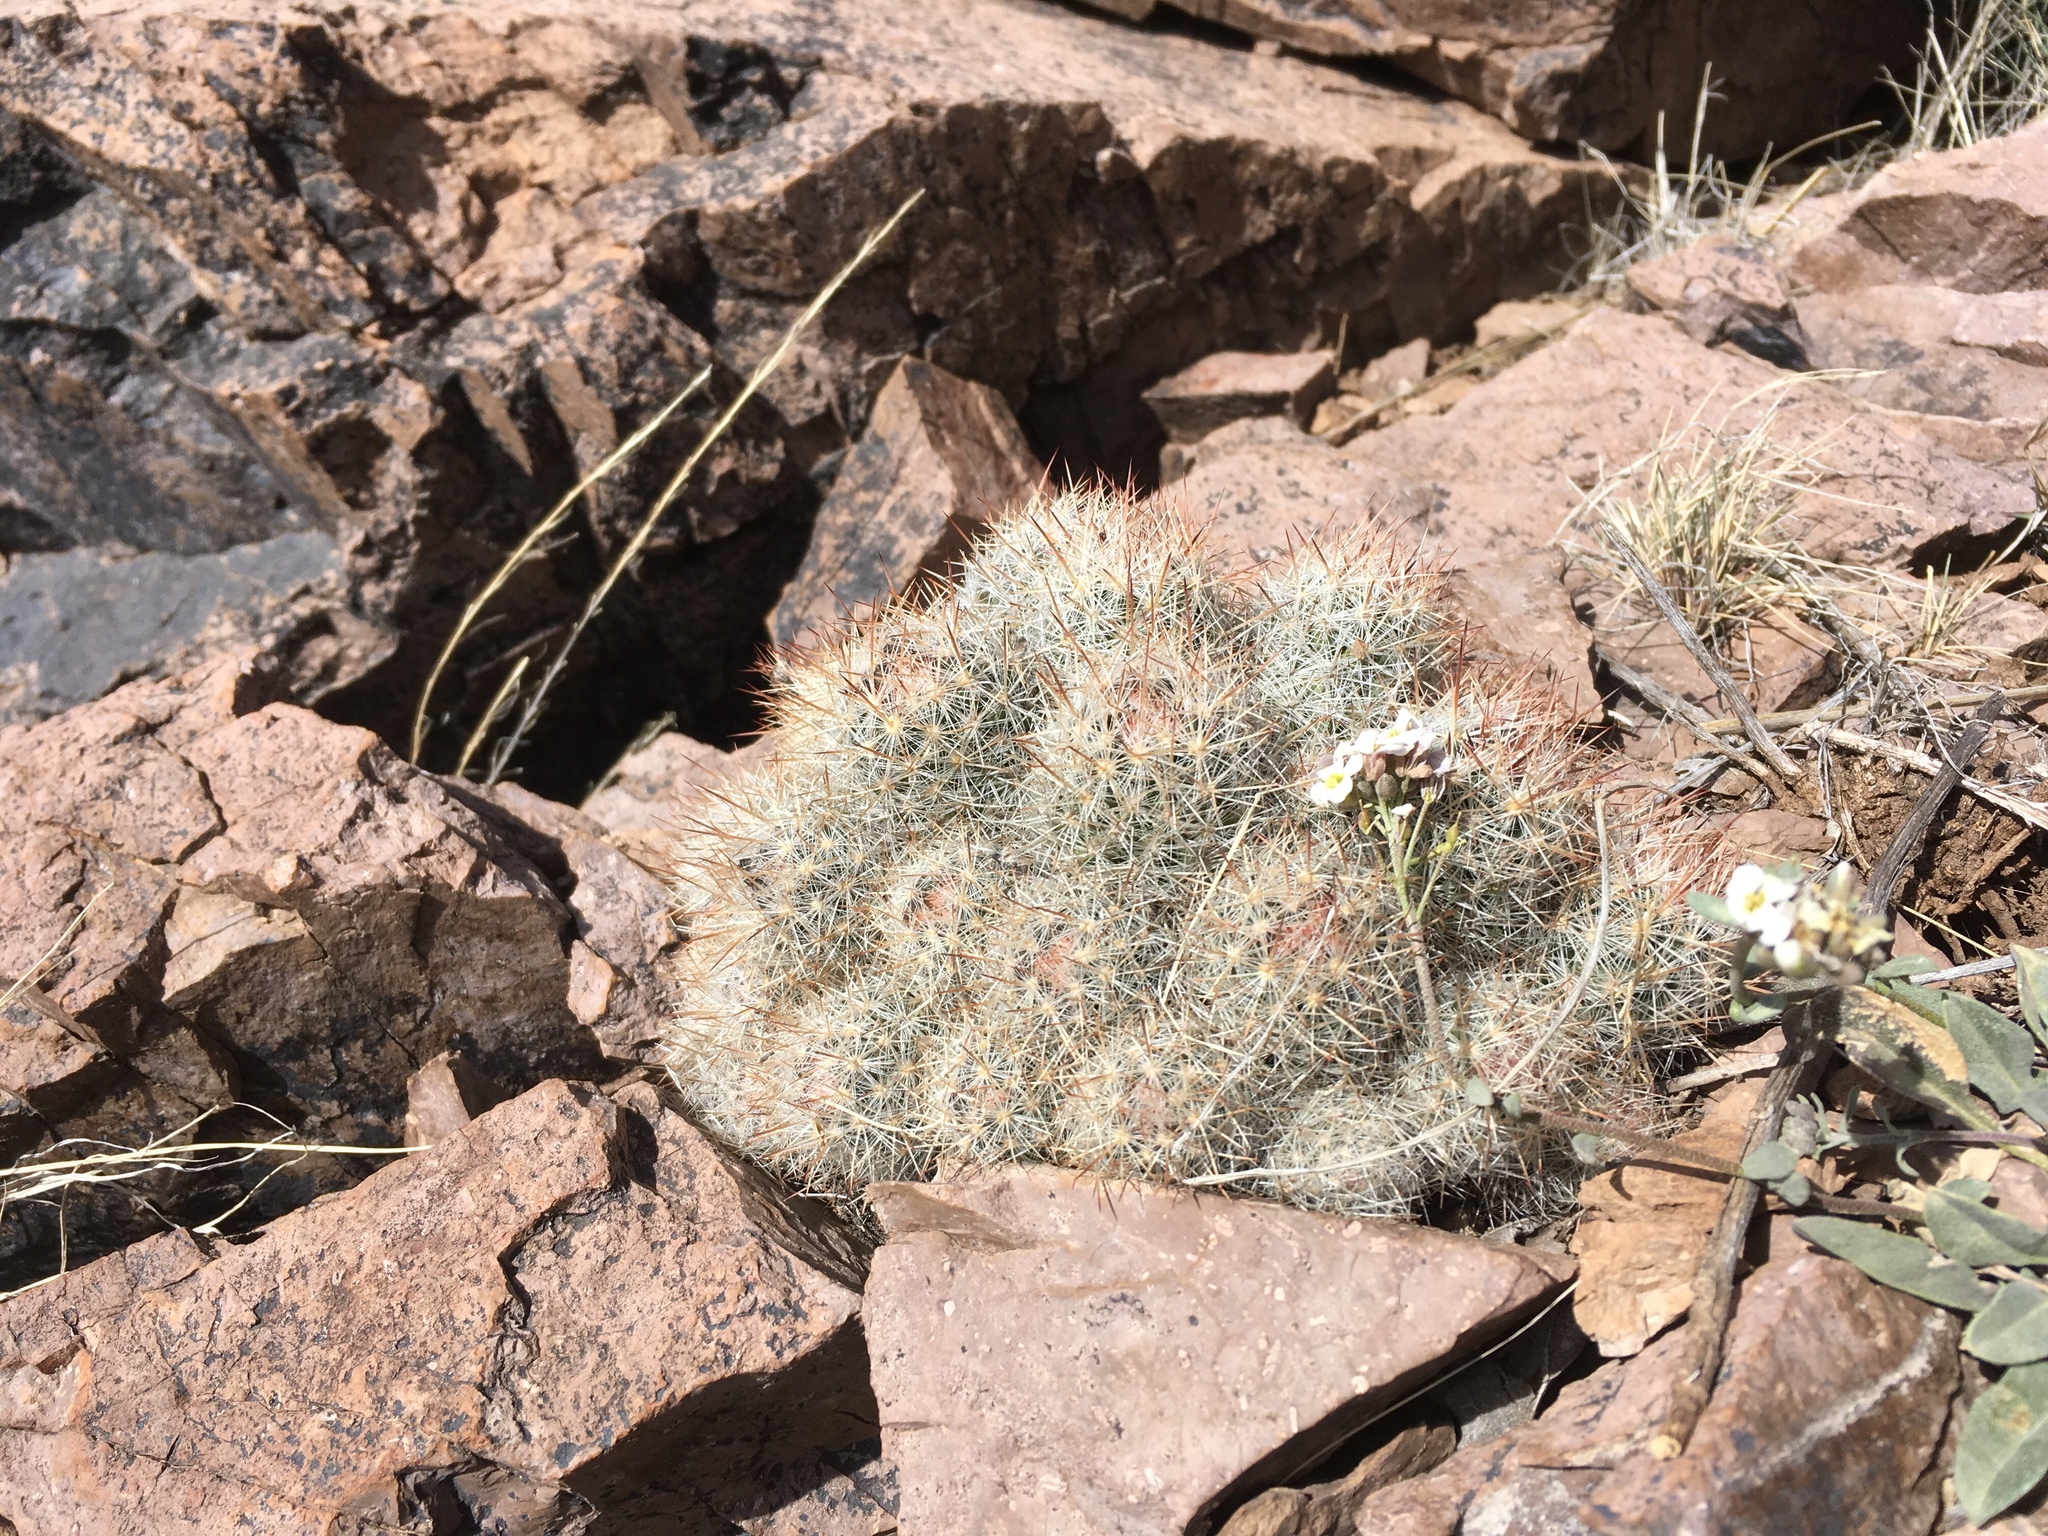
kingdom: Plantae
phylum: Tracheophyta
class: Magnoliopsida
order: Caryophyllales
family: Cactaceae
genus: Pelecyphora
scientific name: Pelecyphora sneedii
